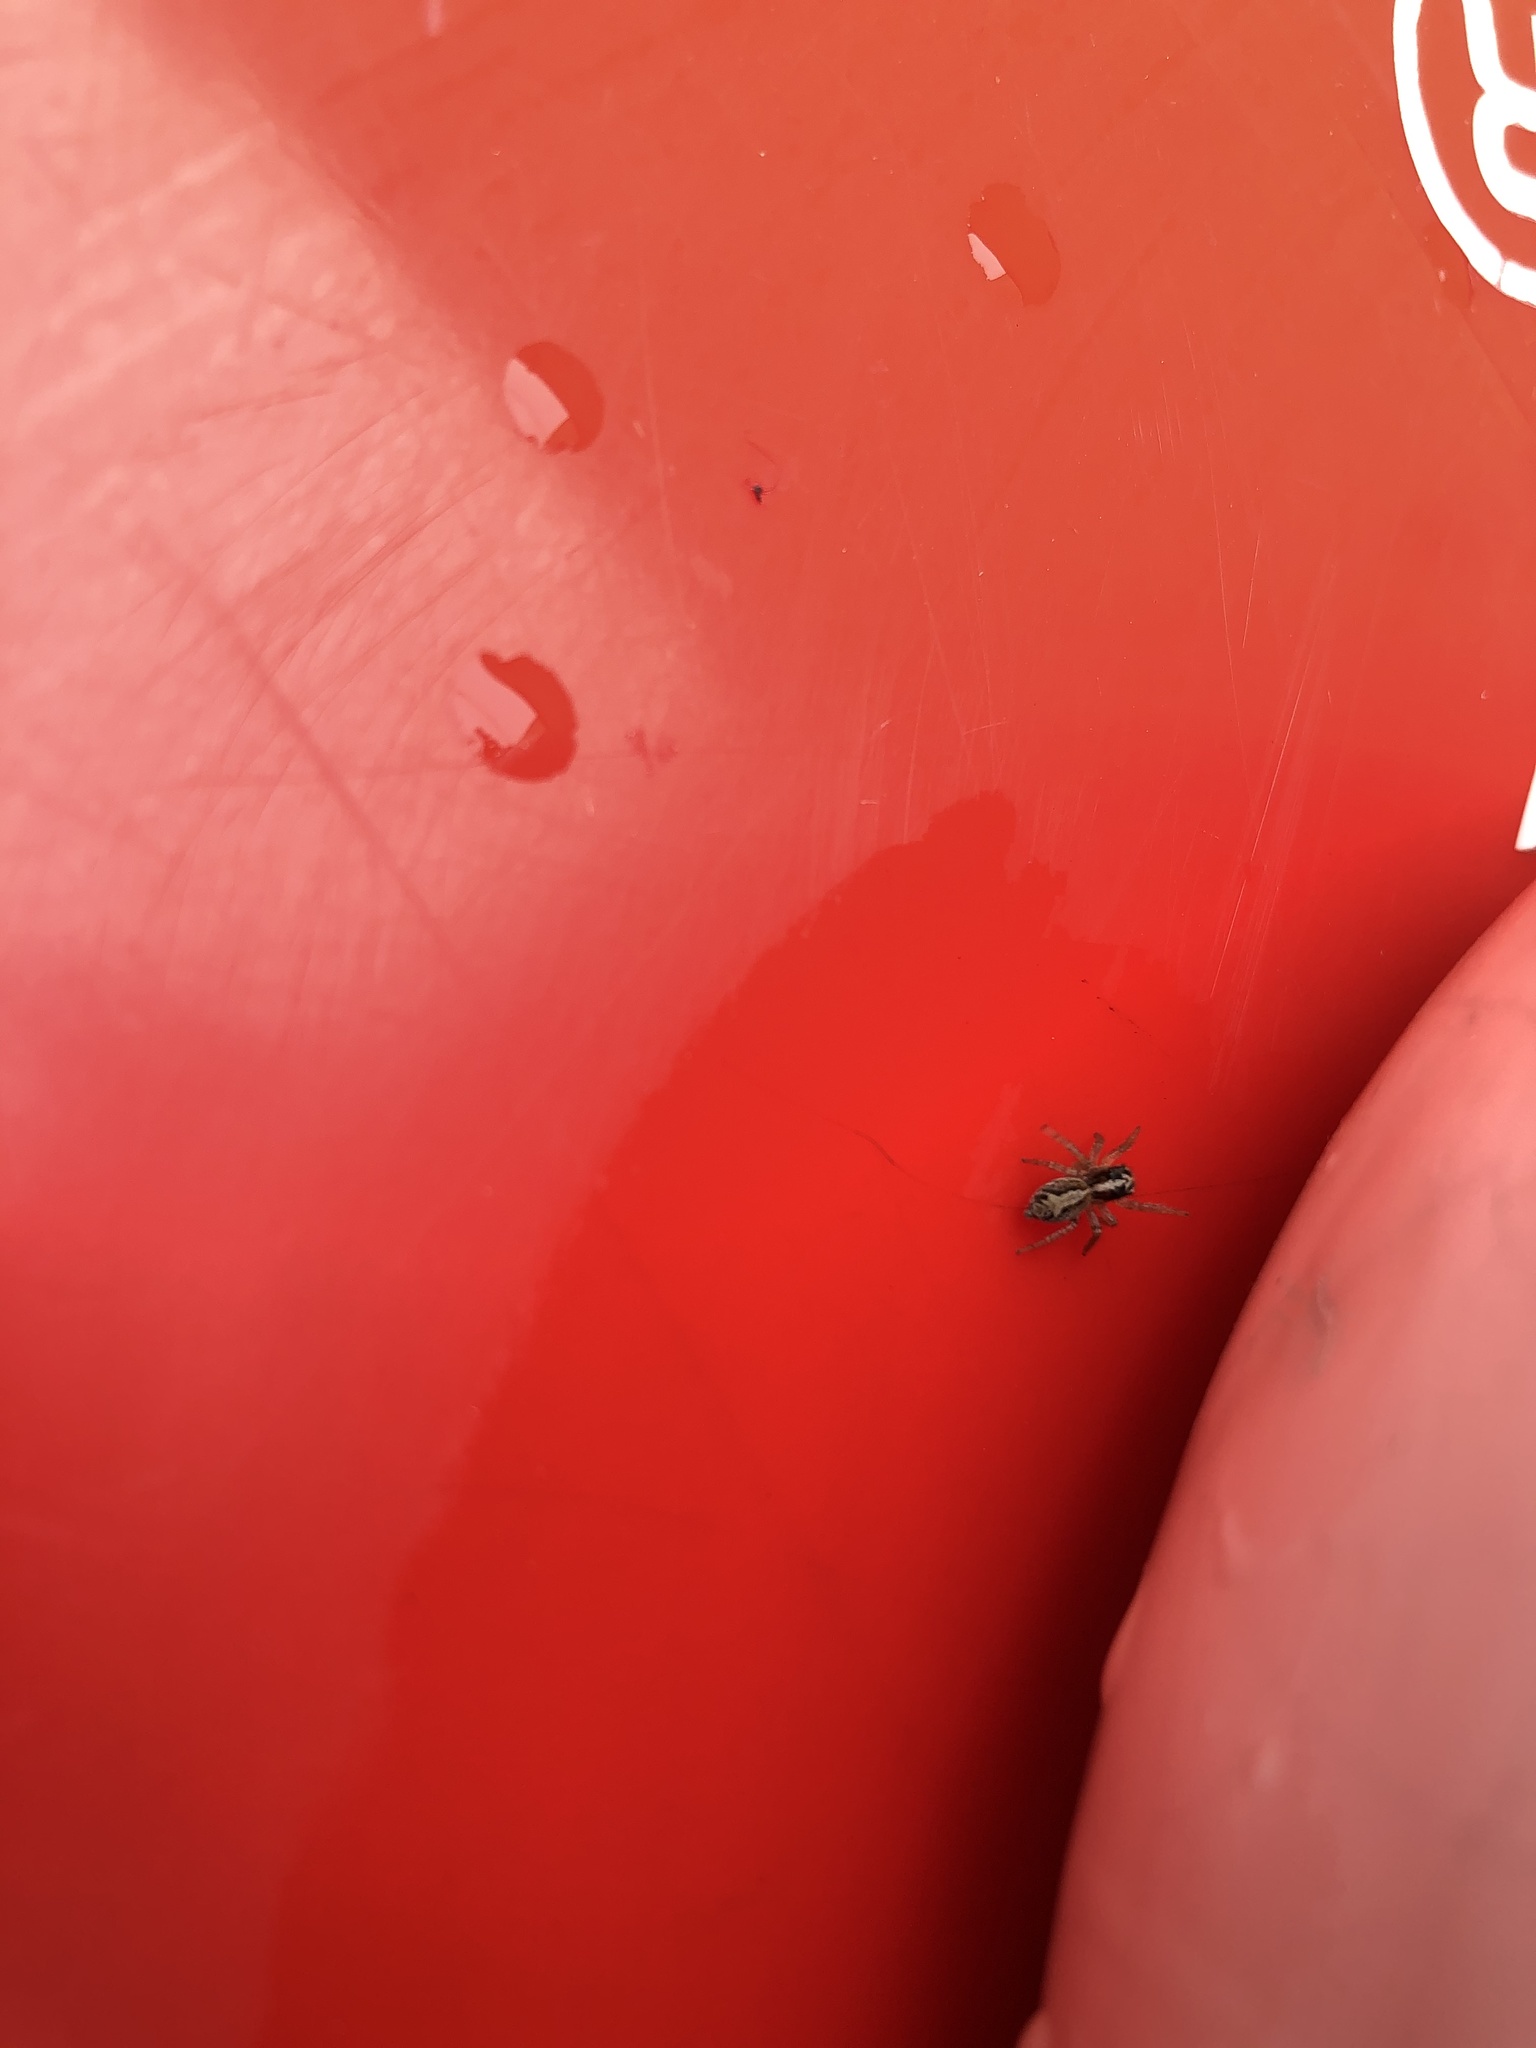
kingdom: Animalia
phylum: Arthropoda
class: Arachnida
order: Araneae
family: Salticidae
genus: Frigga
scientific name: Frigga crocuta
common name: Jumping spiders
